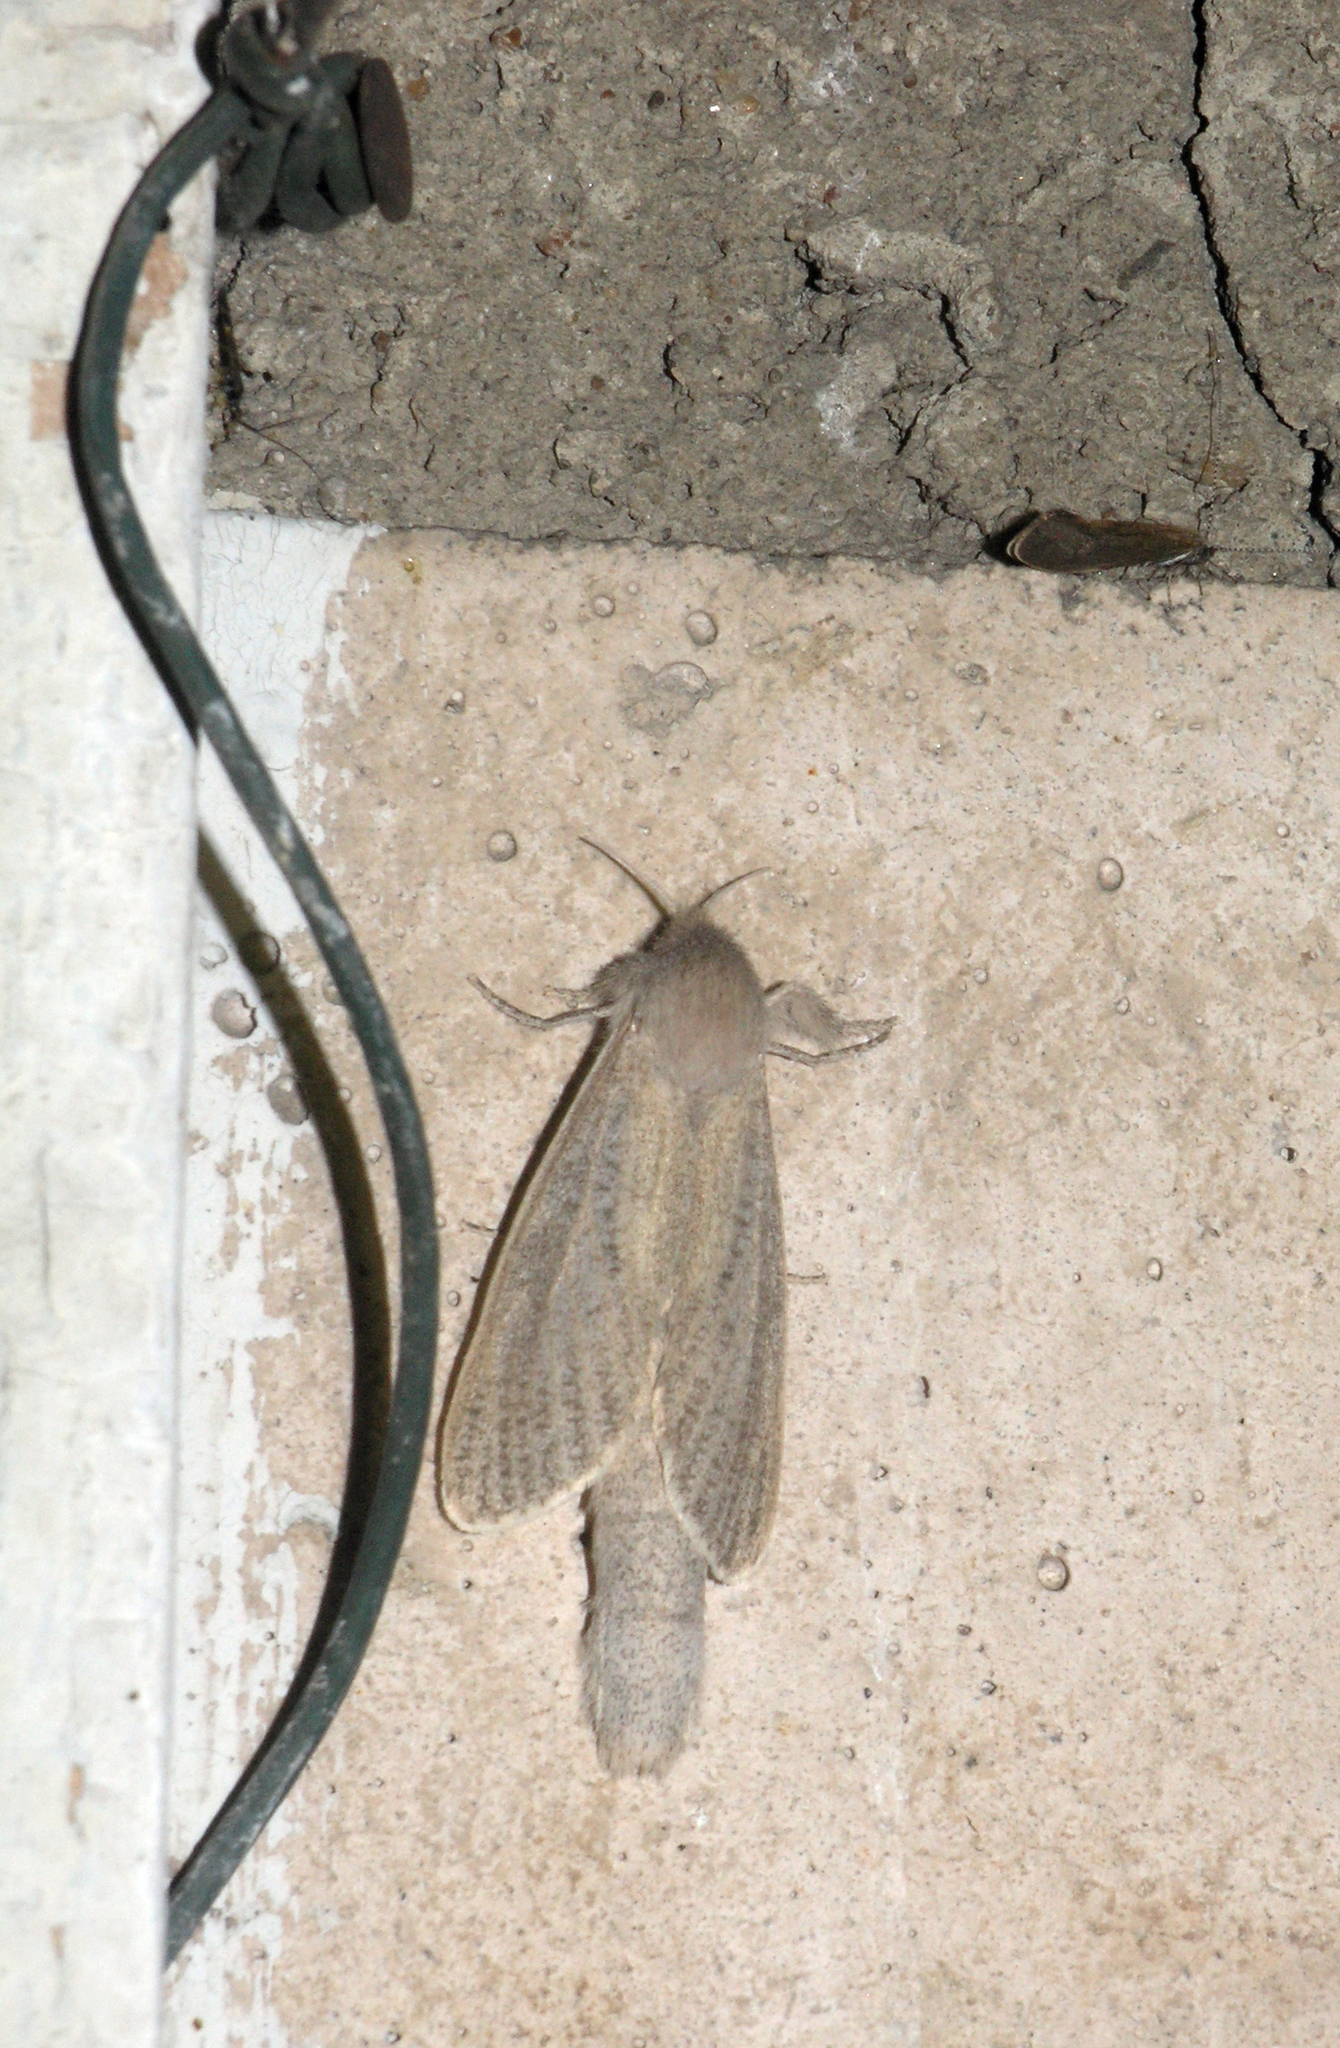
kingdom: Animalia
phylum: Arthropoda
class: Insecta
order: Lepidoptera
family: Cossidae
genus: Phragmataecia
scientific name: Phragmataecia castaneae
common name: Reed leopard
